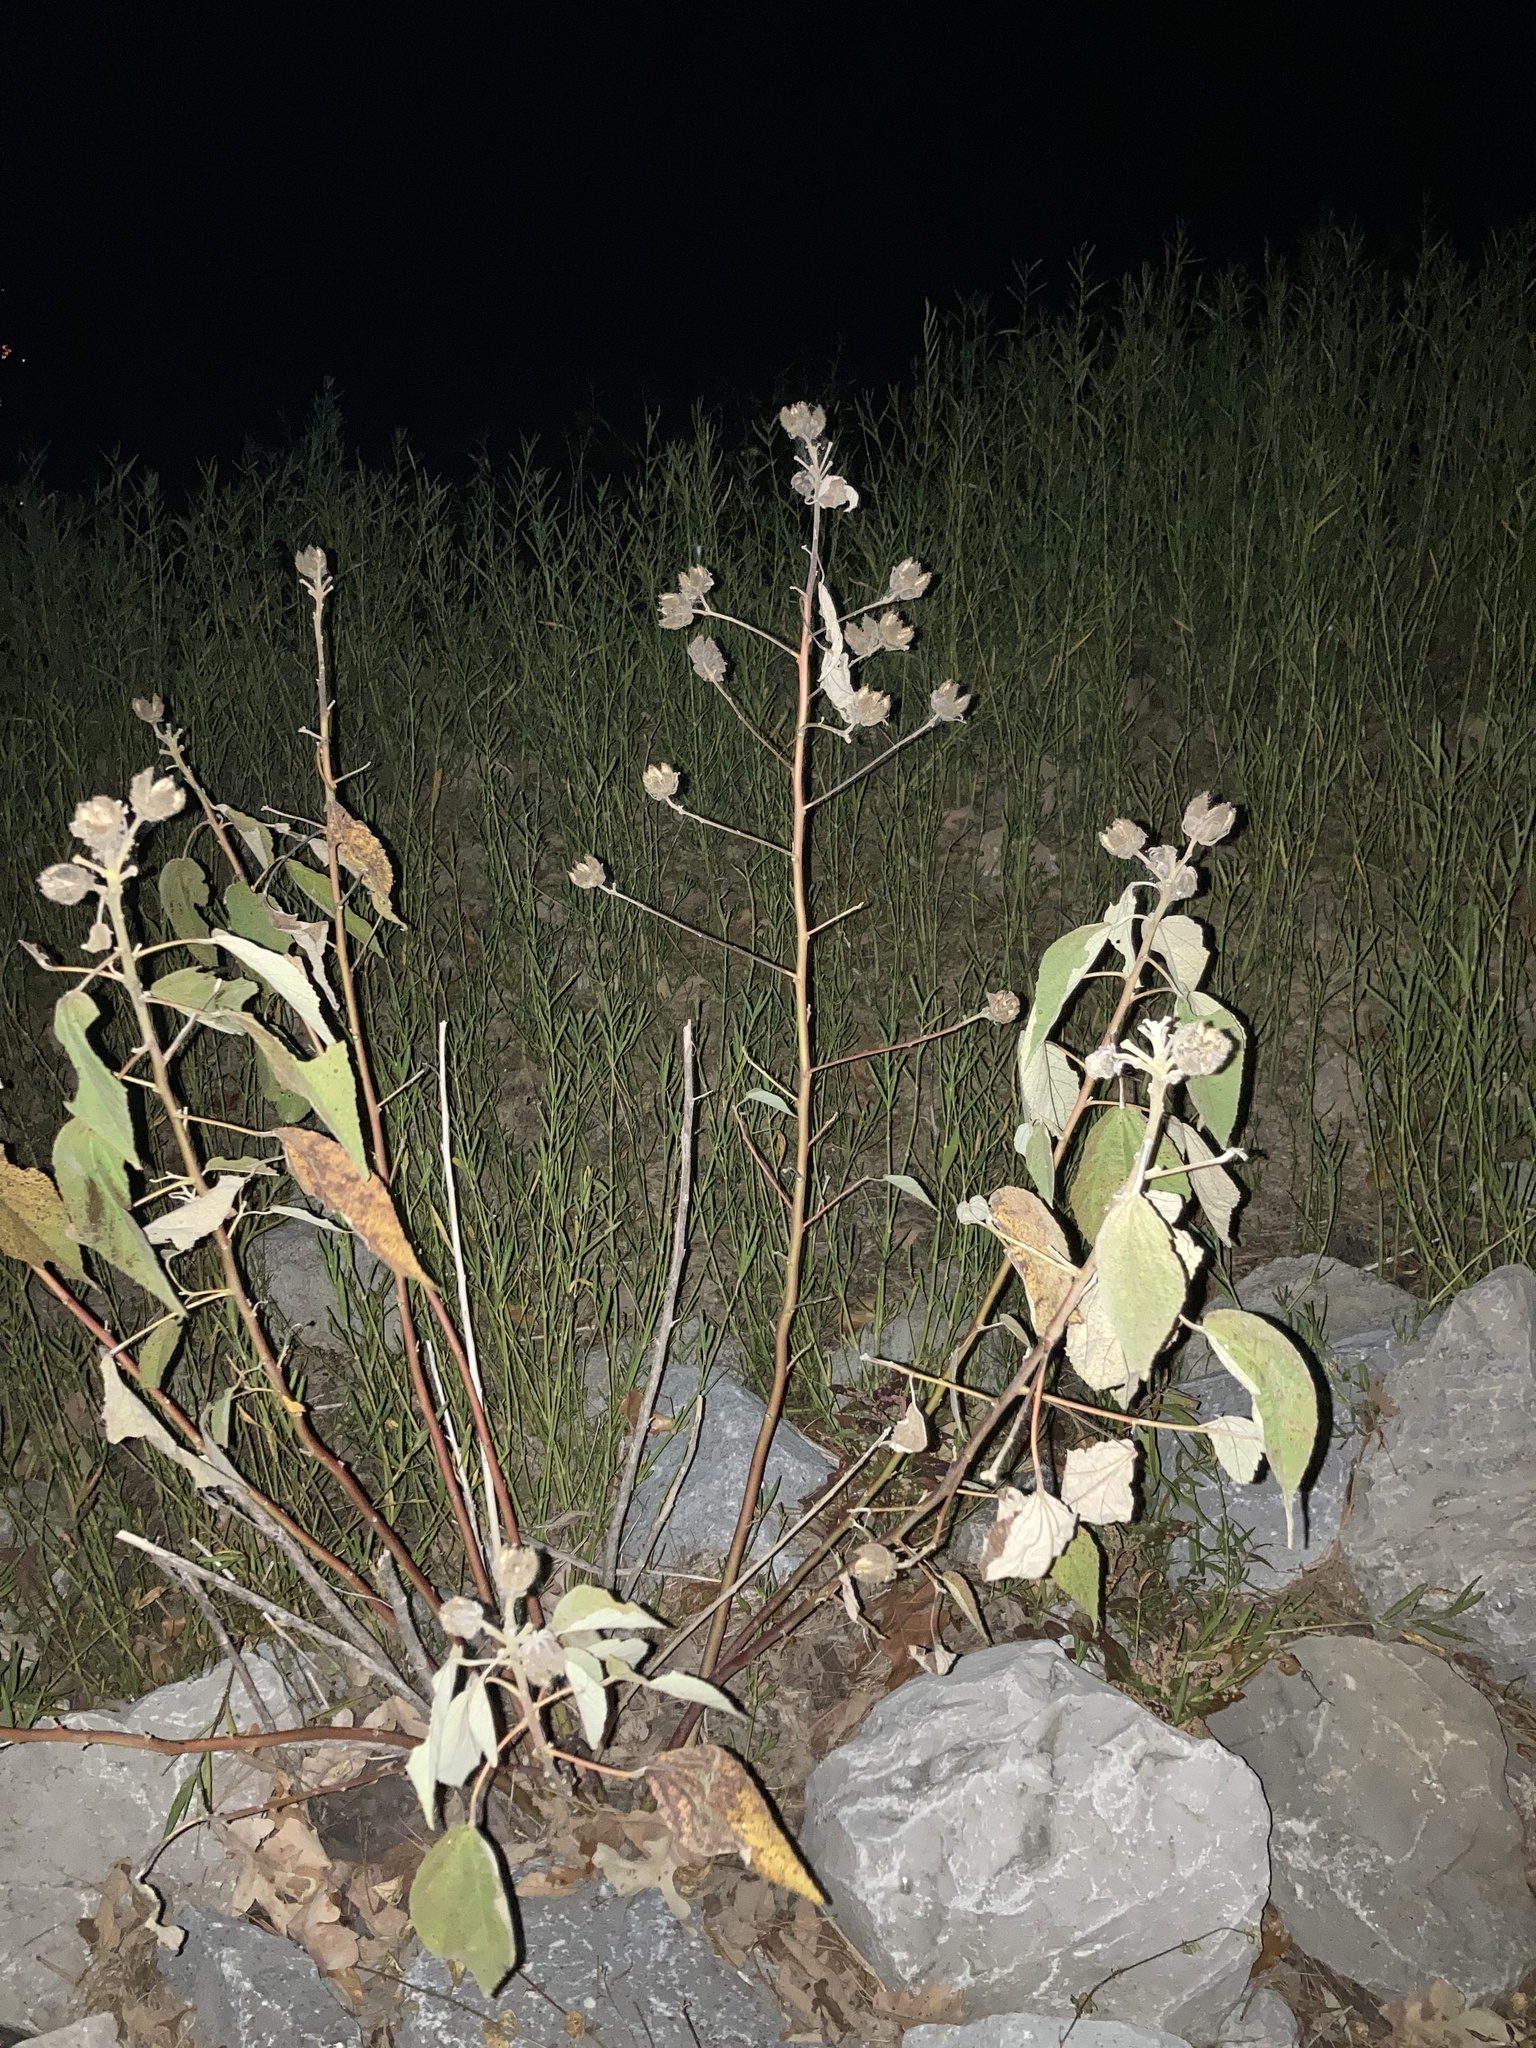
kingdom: Plantae
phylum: Tracheophyta
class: Magnoliopsida
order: Malvales
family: Malvaceae
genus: Hibiscus
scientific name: Hibiscus moscheutos
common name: Common rose-mallow
